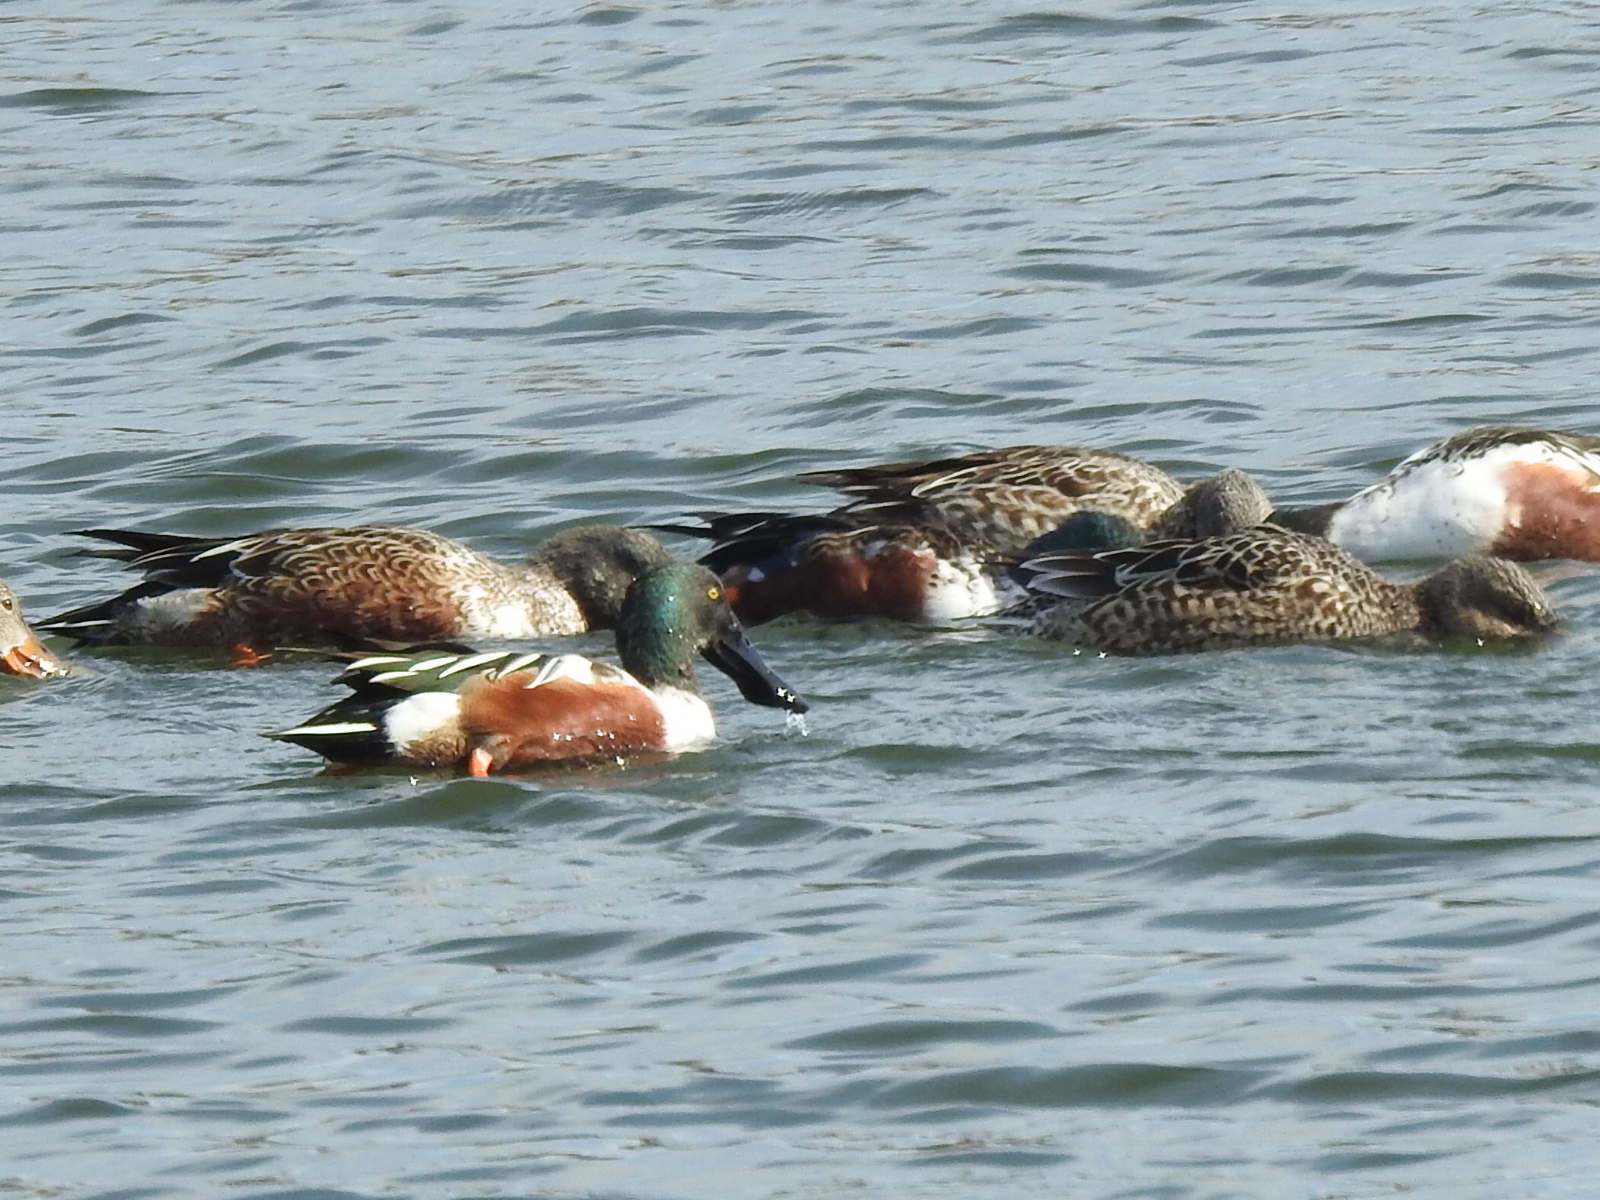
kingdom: Animalia
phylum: Chordata
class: Aves
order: Anseriformes
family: Anatidae
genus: Spatula
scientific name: Spatula clypeata
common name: Northern shoveler
